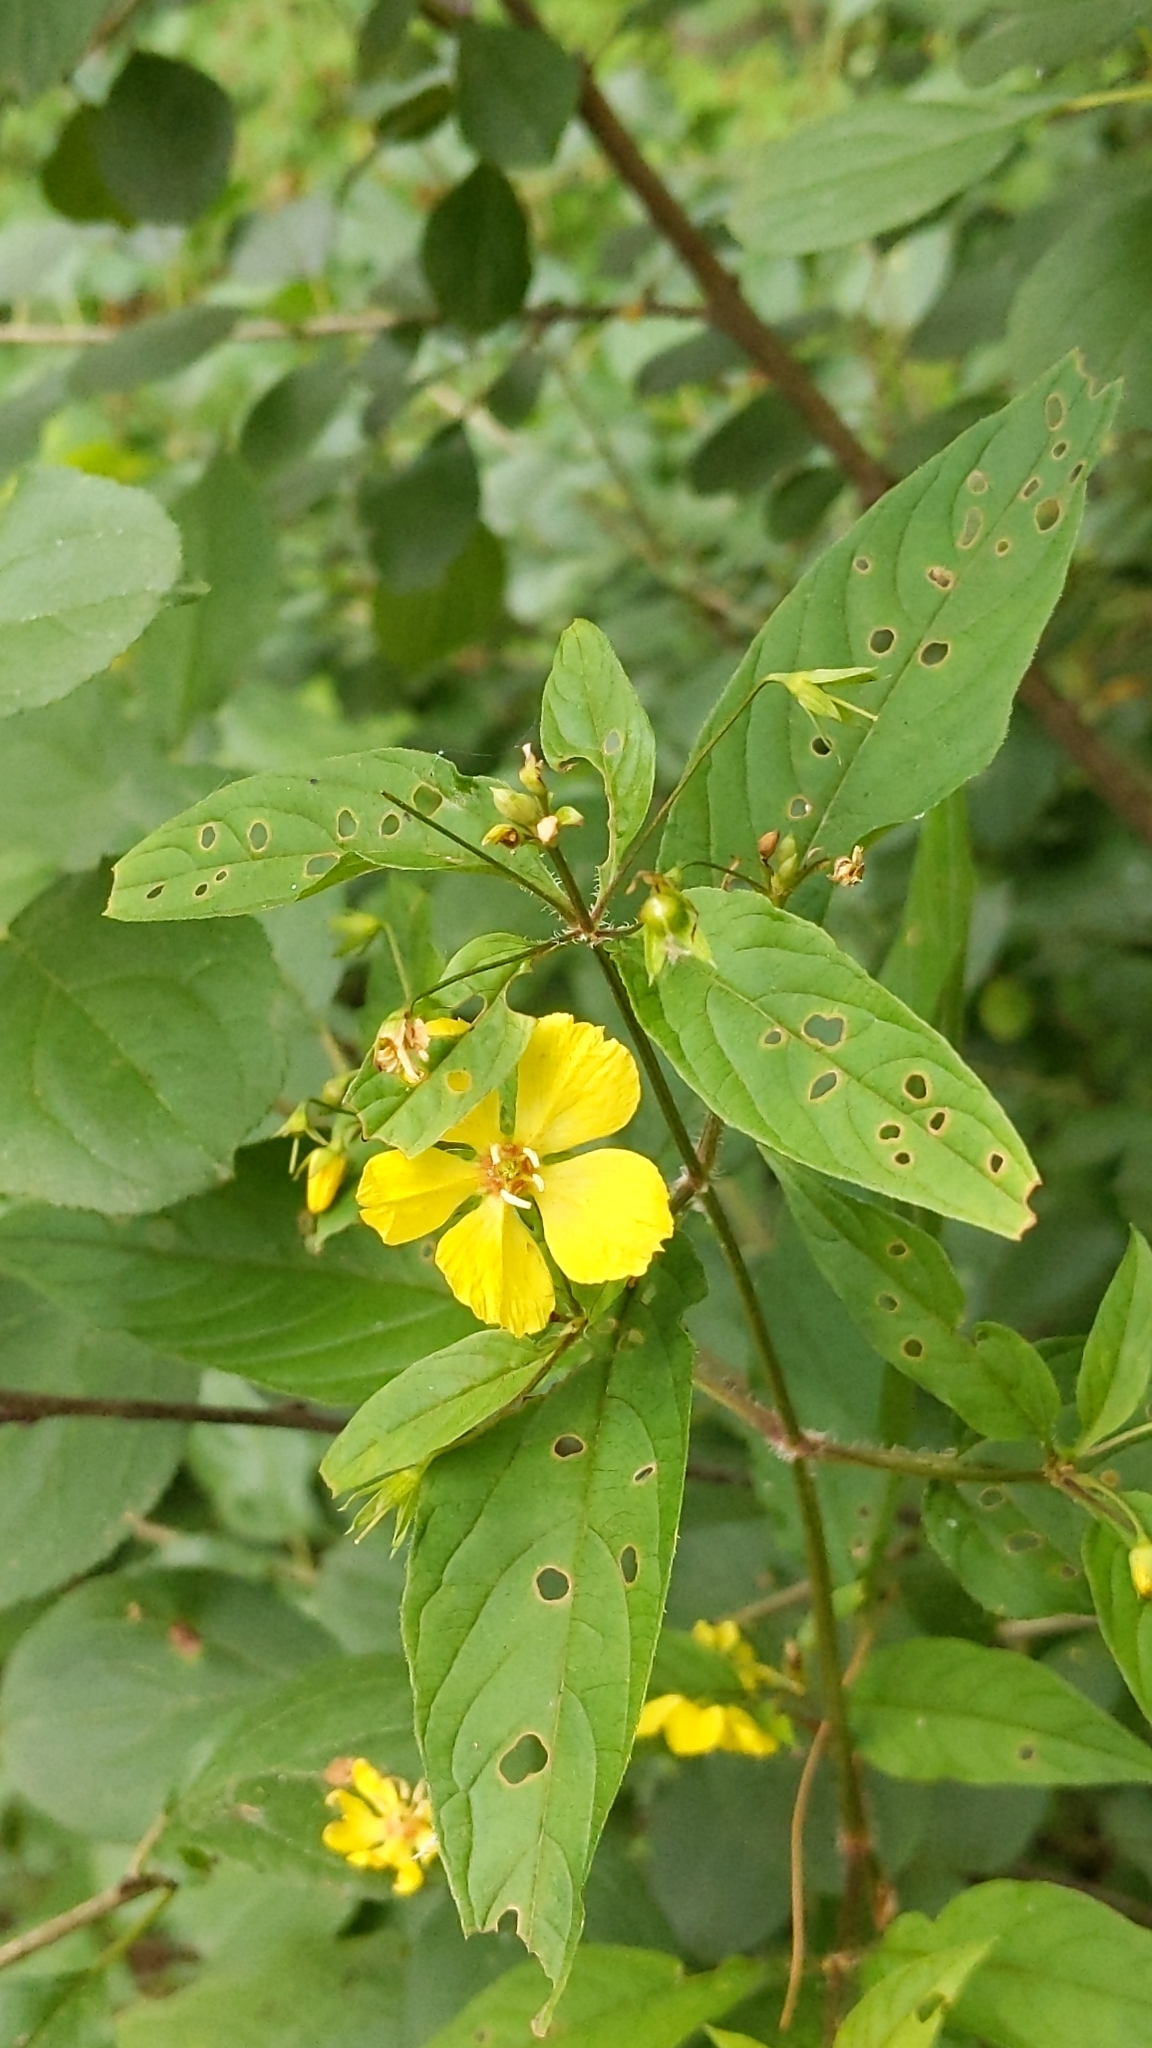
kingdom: Plantae
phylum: Tracheophyta
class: Magnoliopsida
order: Ericales
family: Primulaceae
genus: Lysimachia
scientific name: Lysimachia ciliata
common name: Fringed loosestrife
